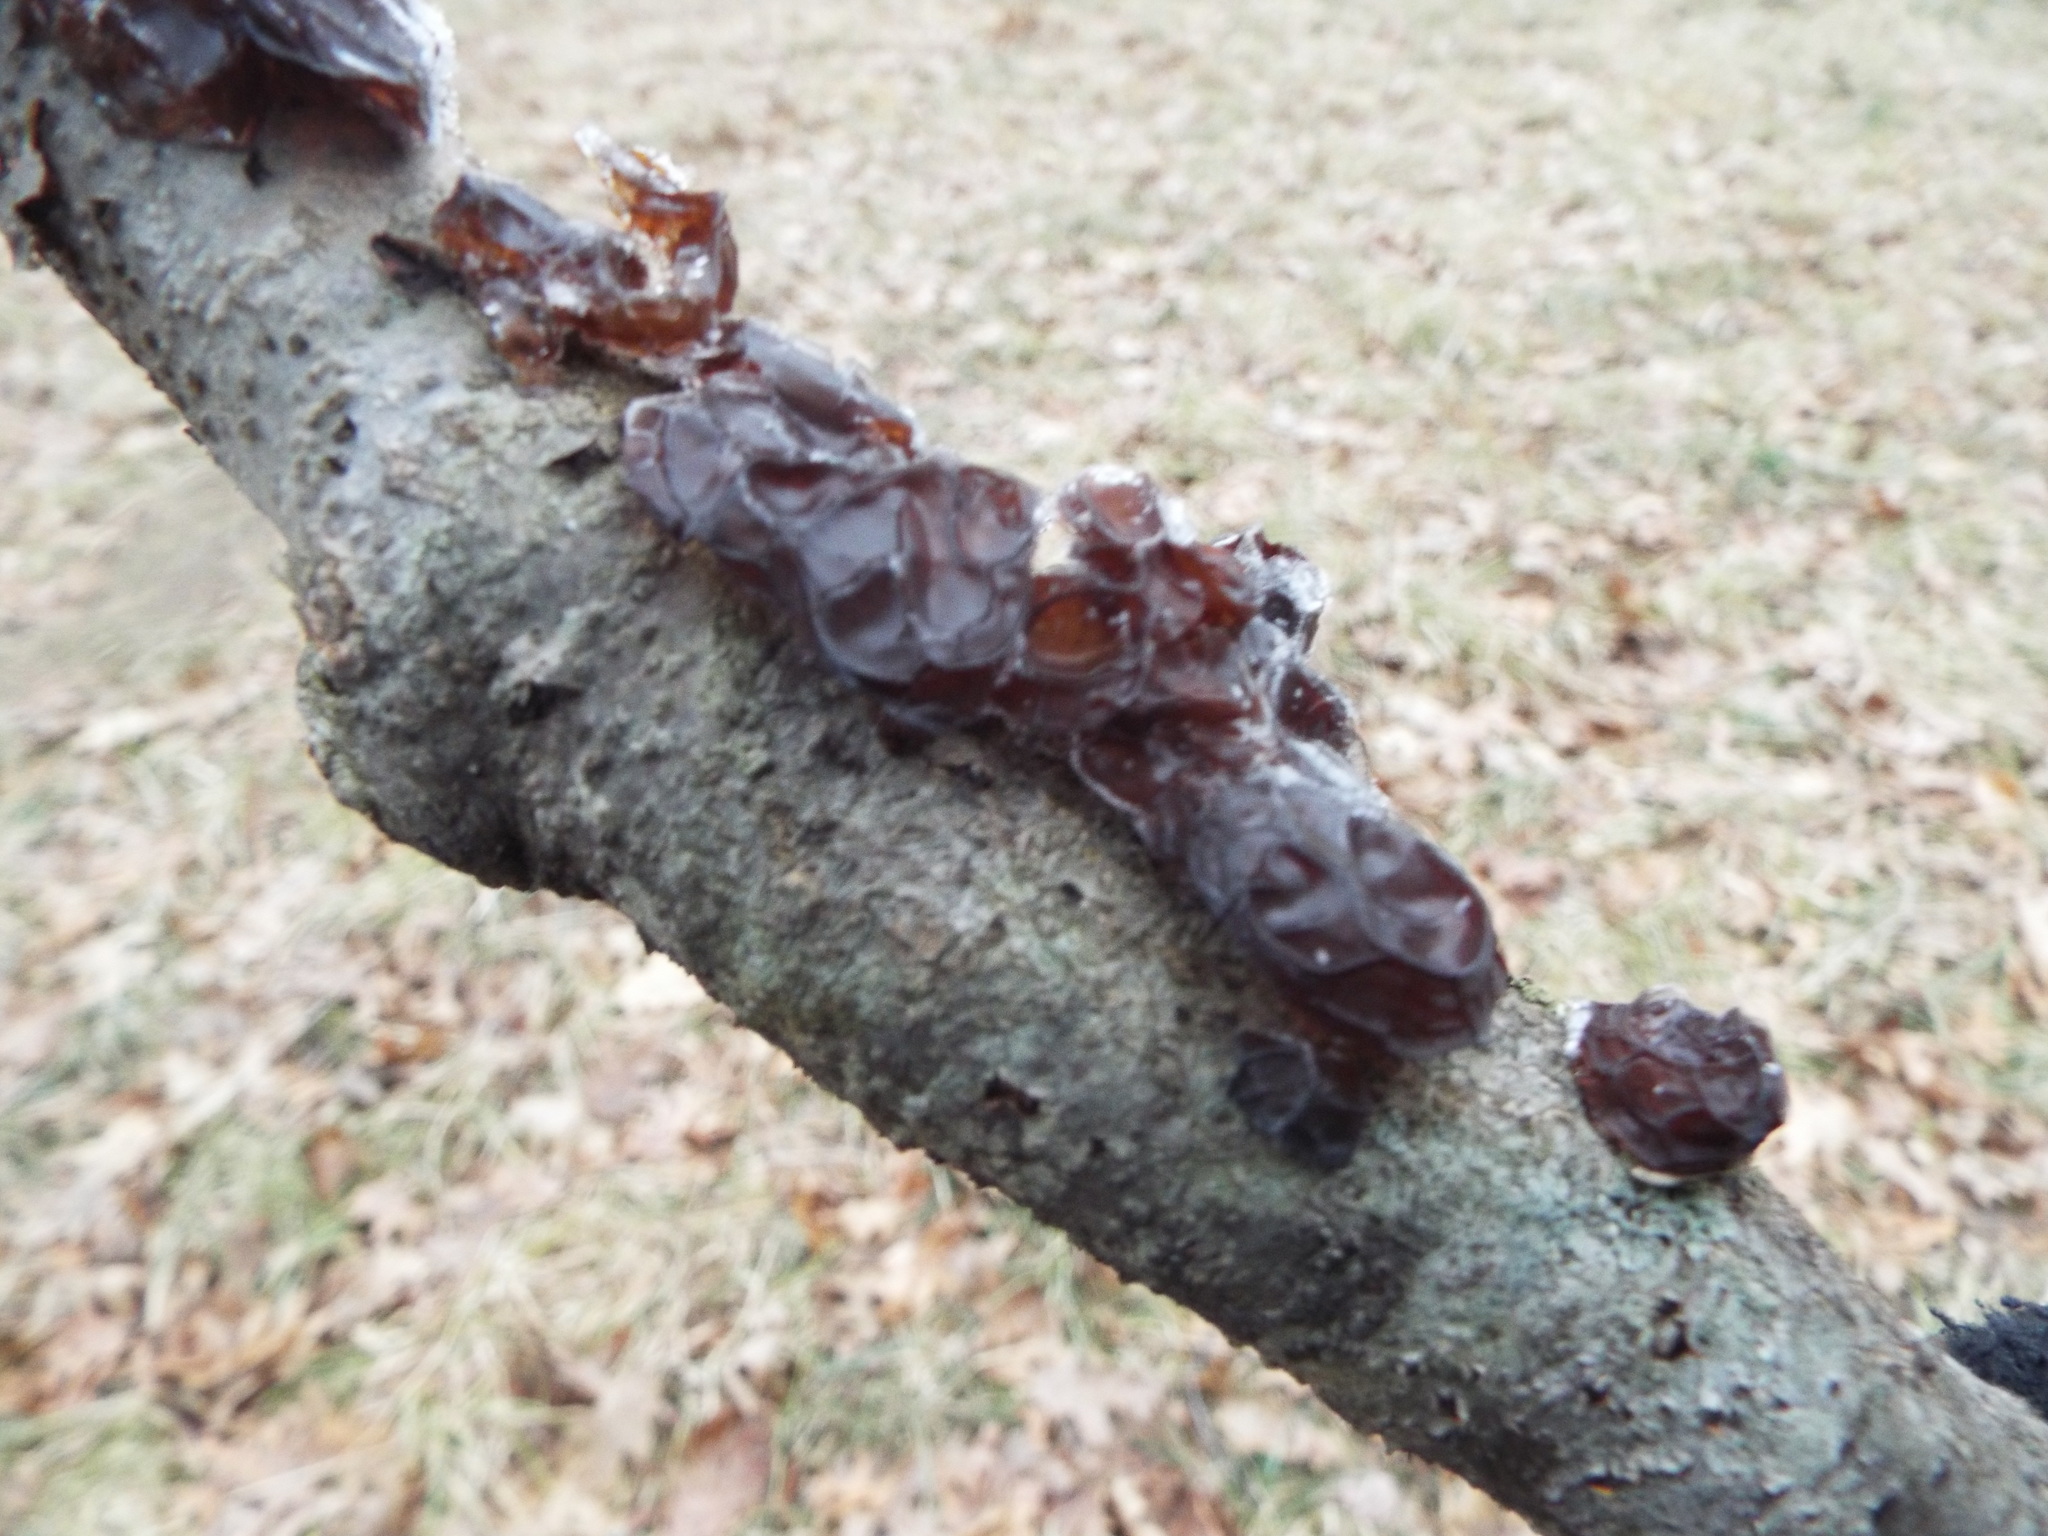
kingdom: Fungi
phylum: Basidiomycota
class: Agaricomycetes
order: Auriculariales
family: Auriculariaceae
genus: Exidia
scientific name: Exidia
